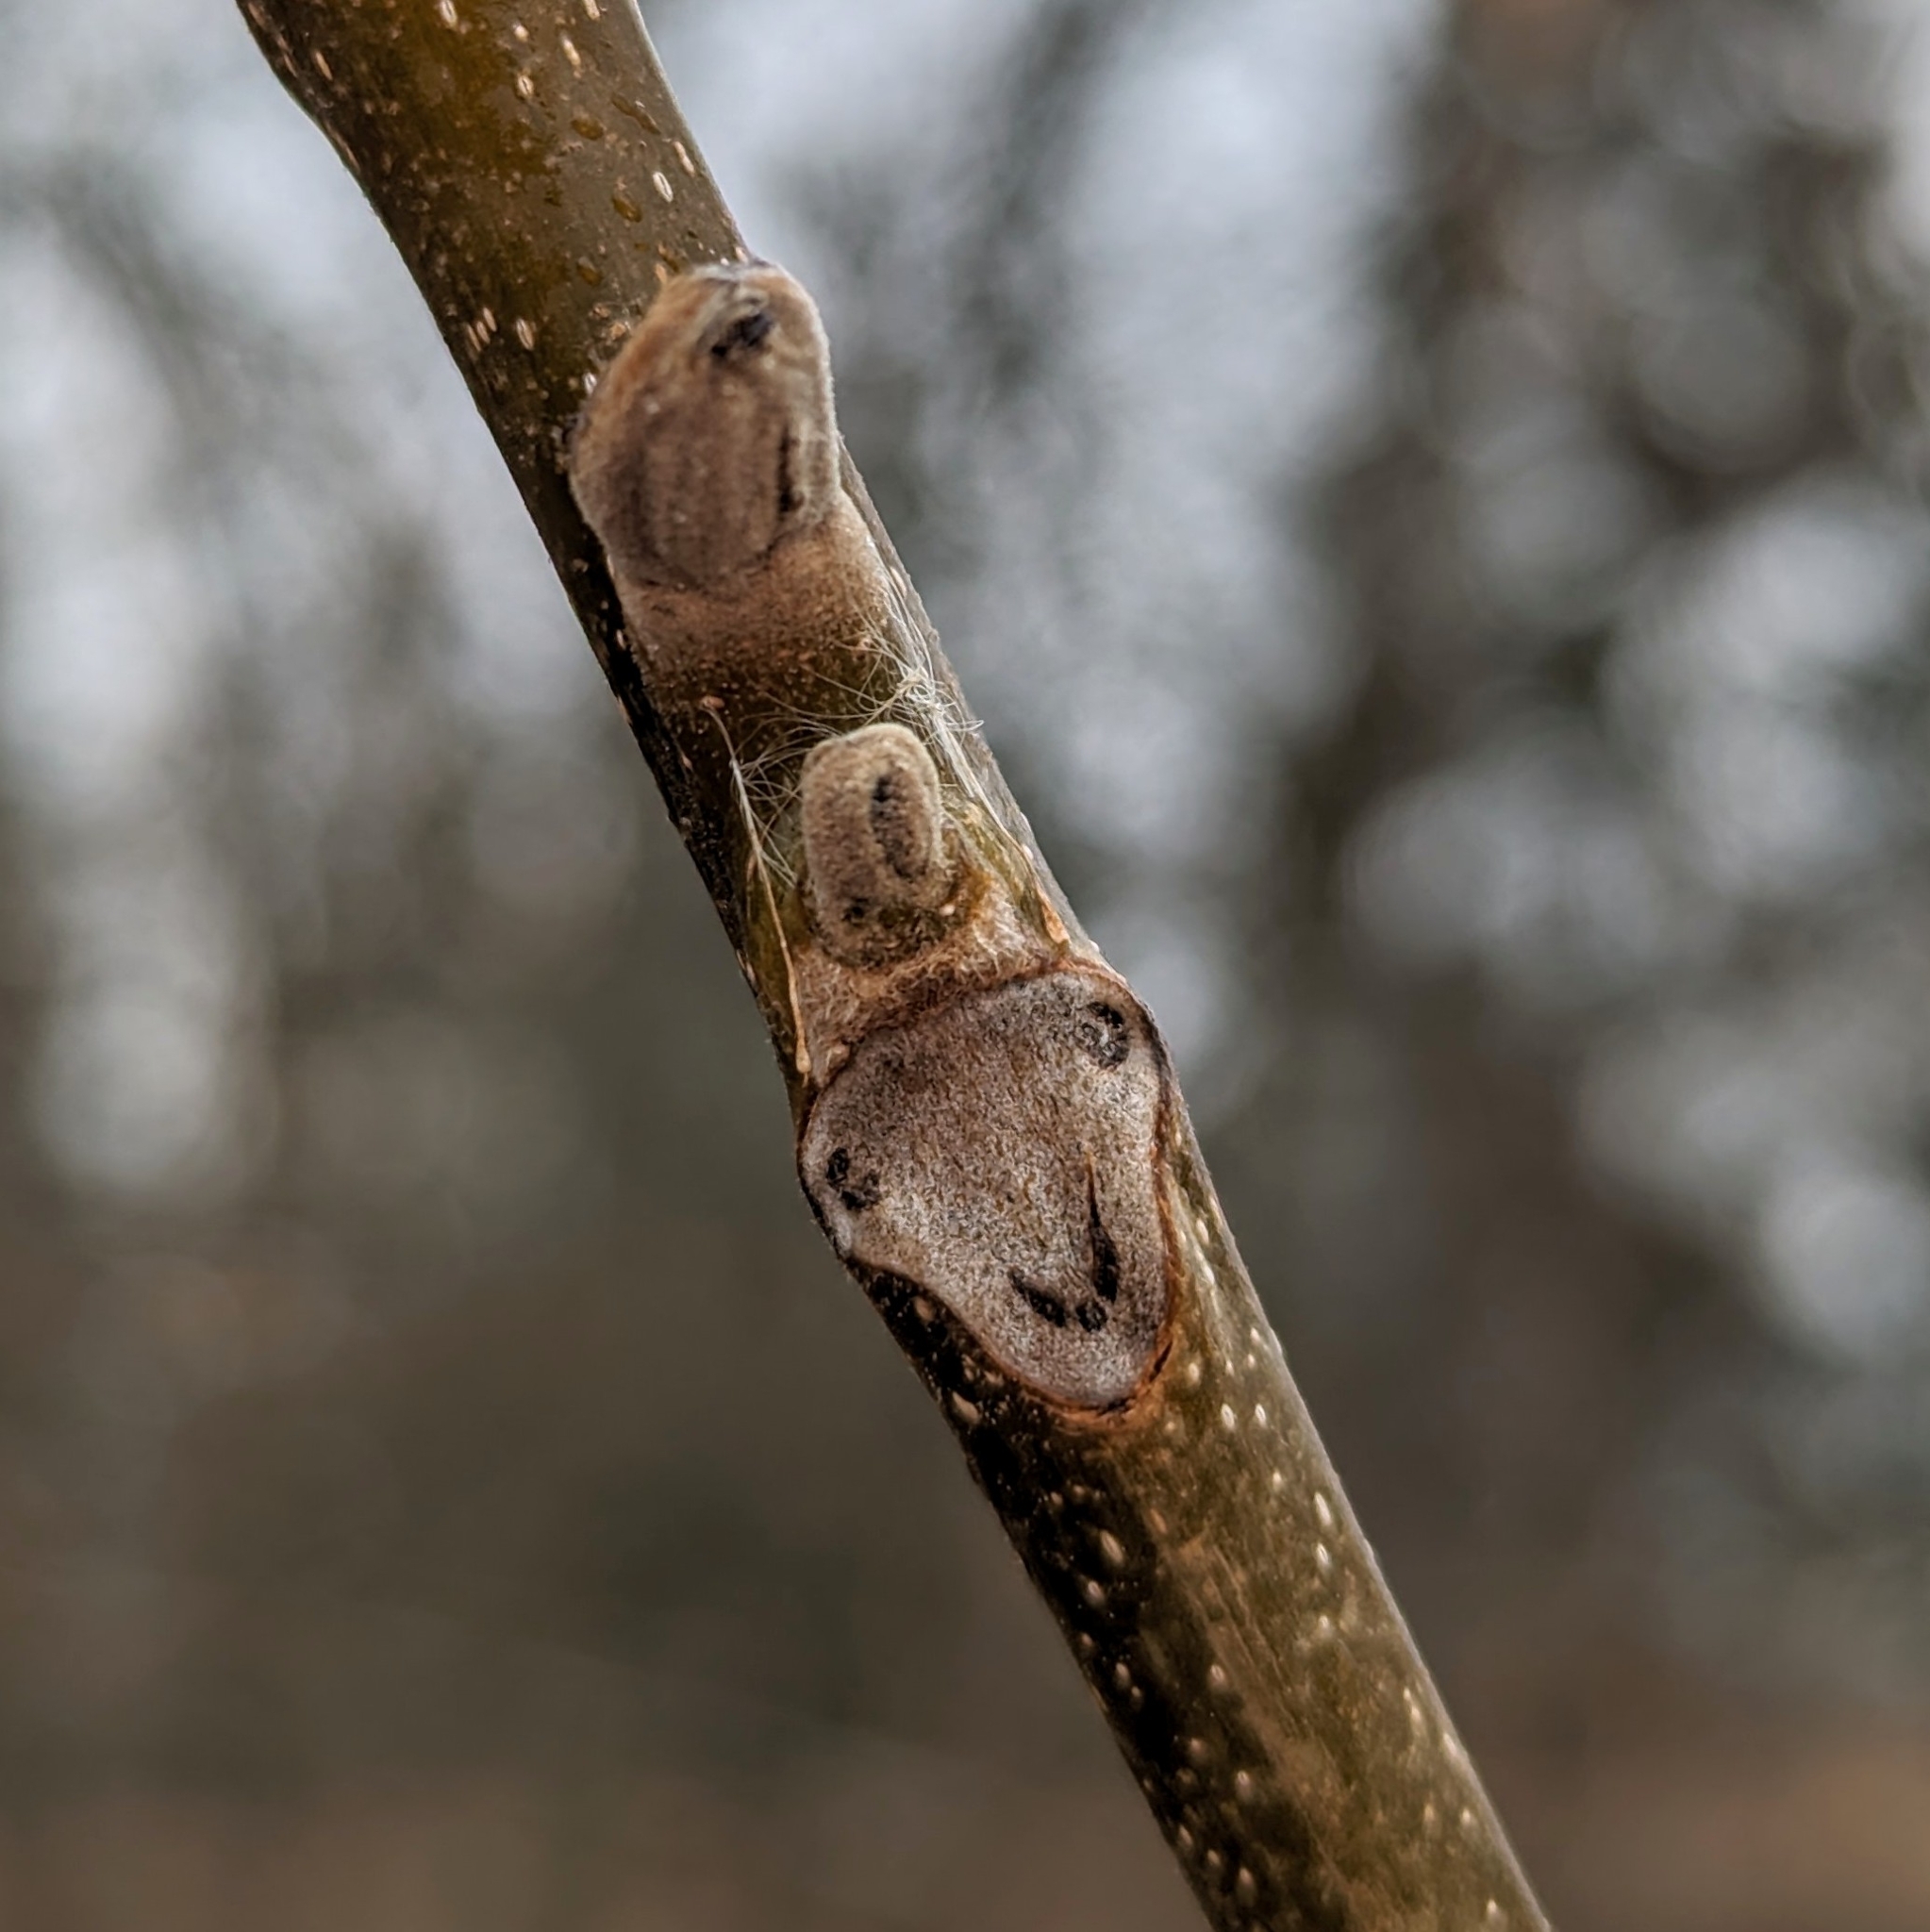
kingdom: Plantae
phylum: Tracheophyta
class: Magnoliopsida
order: Fagales
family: Juglandaceae
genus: Juglans
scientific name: Juglans cinerea
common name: Butternut
